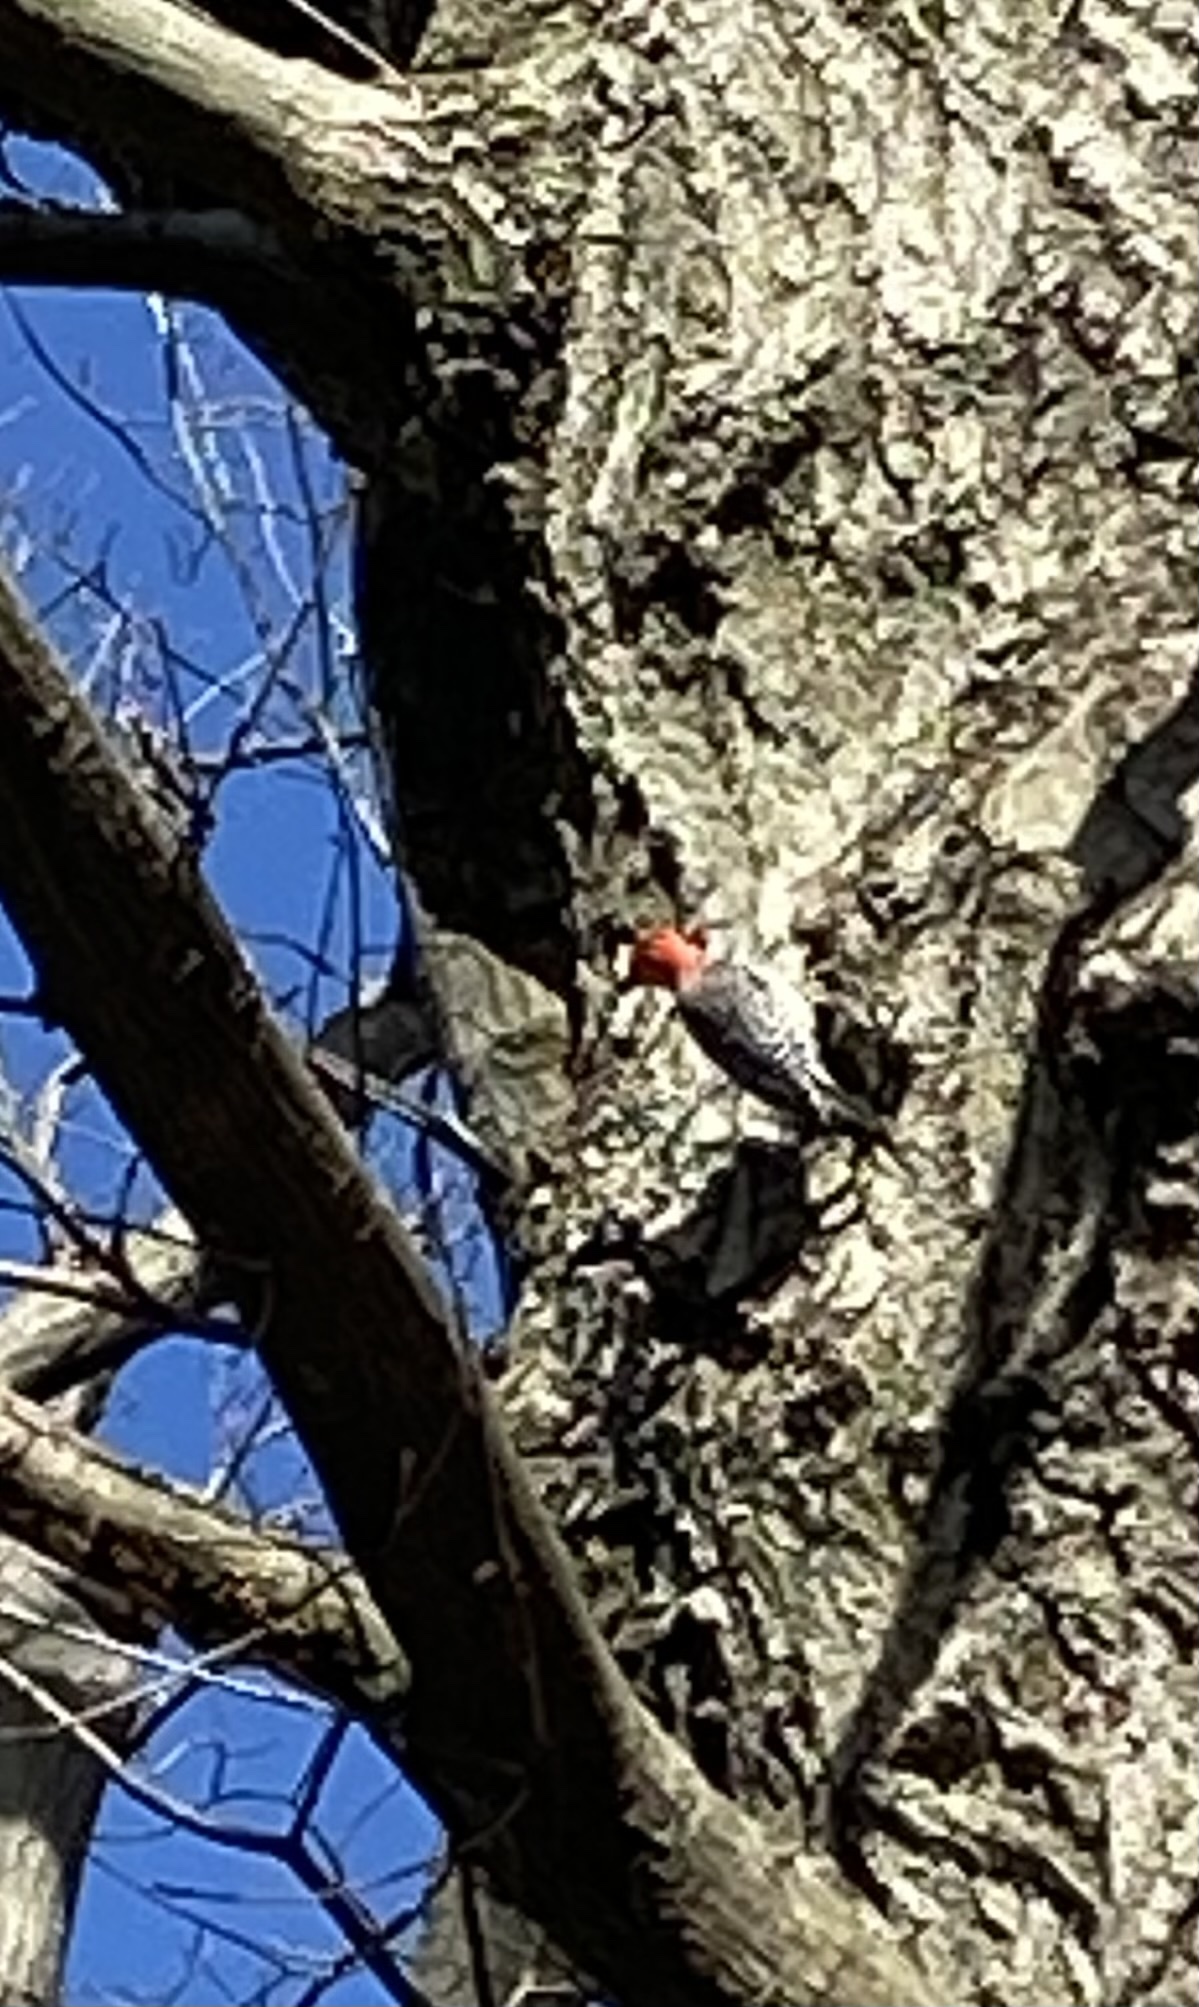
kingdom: Animalia
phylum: Chordata
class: Aves
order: Piciformes
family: Picidae
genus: Melanerpes
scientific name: Melanerpes carolinus
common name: Red-bellied woodpecker
